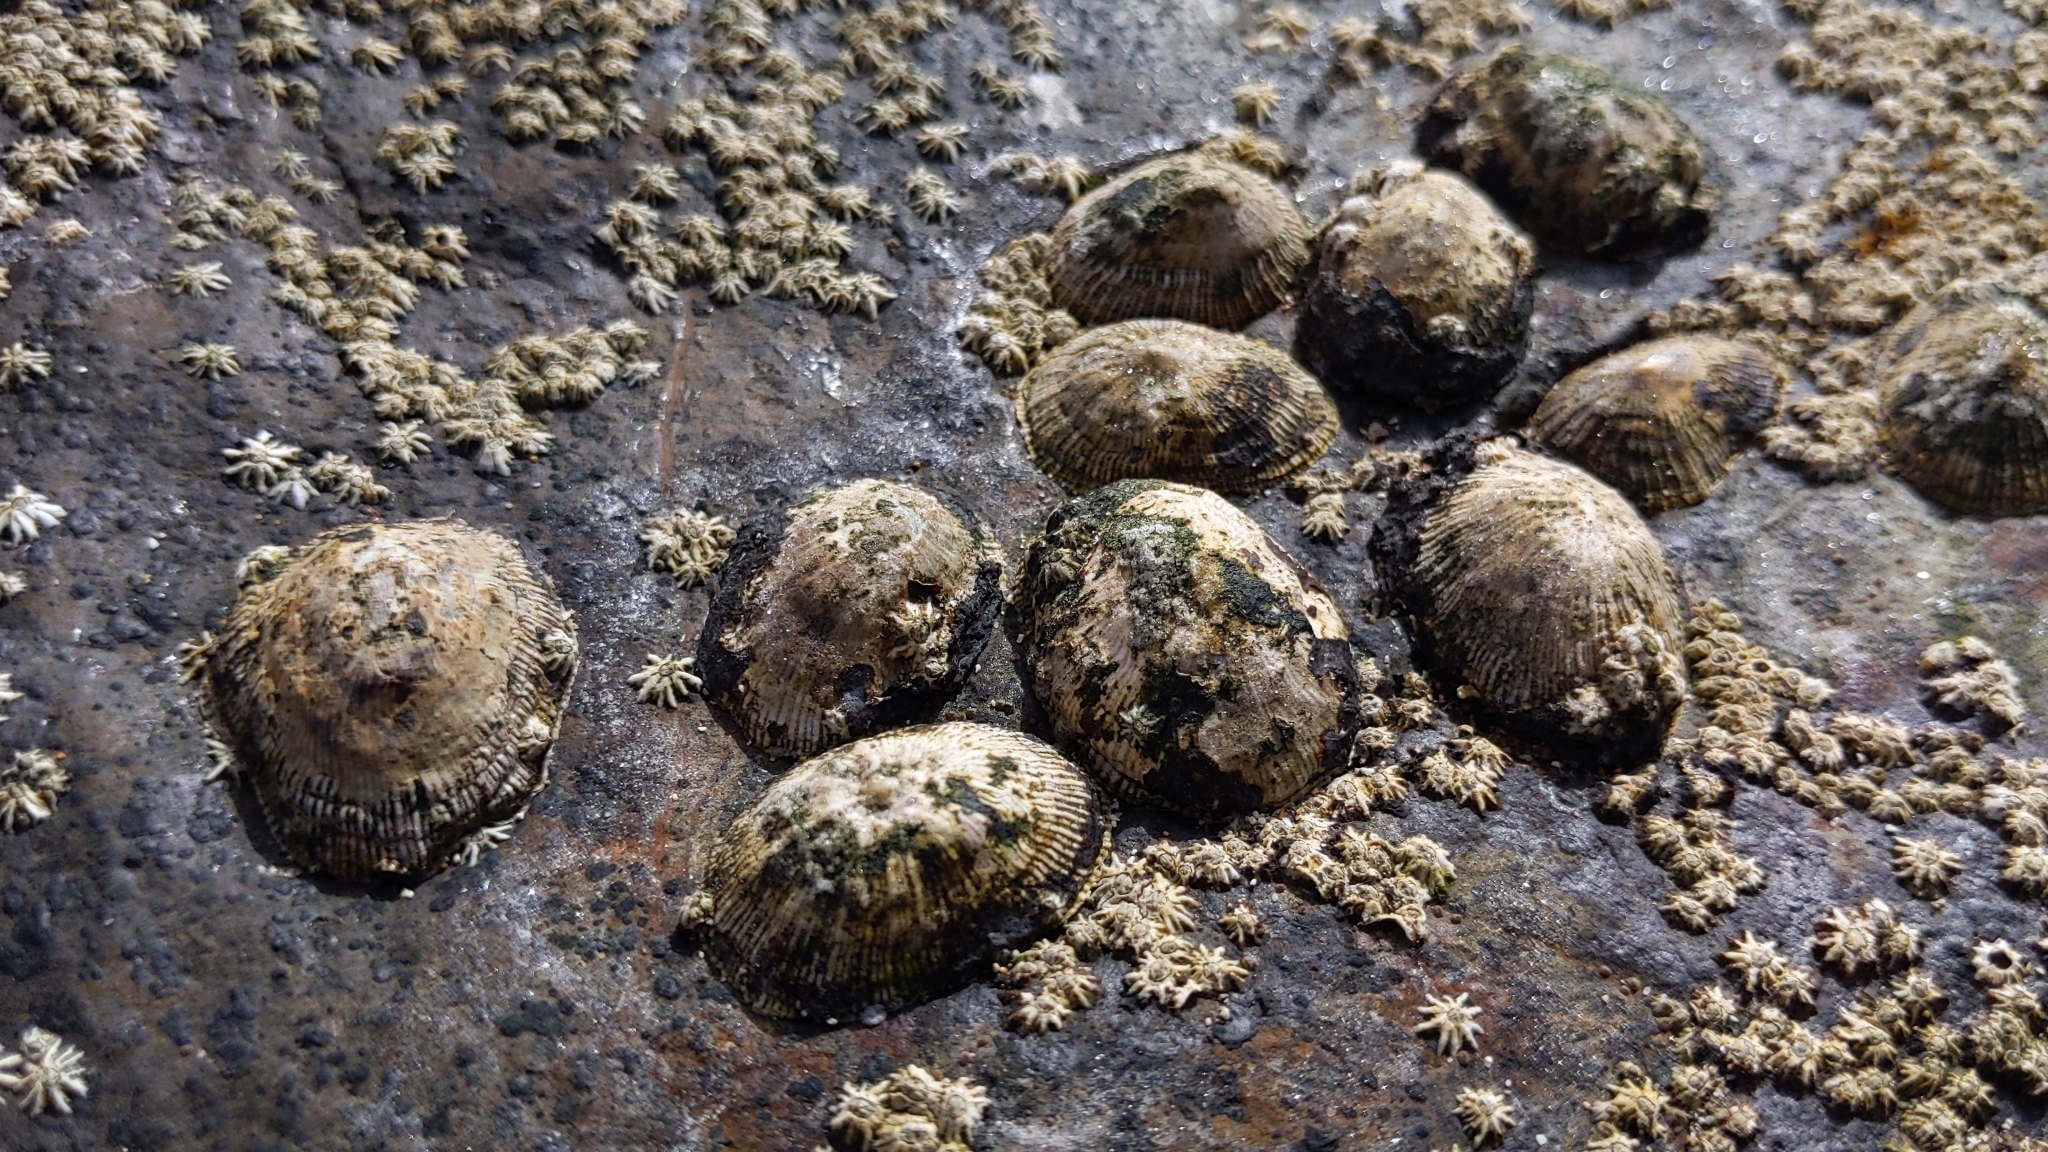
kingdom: Animalia
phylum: Mollusca
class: Gastropoda
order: Siphonariida
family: Siphonariidae
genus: Siphonaria
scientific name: Siphonaria pectinata
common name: Striped false limpet
